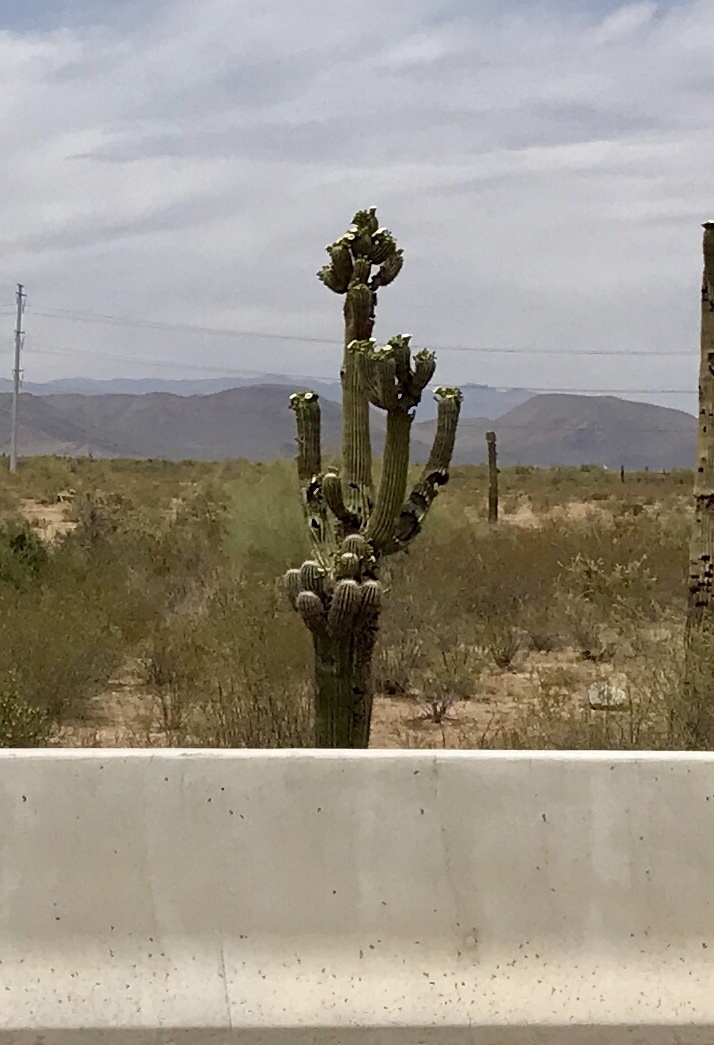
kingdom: Plantae
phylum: Tracheophyta
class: Magnoliopsida
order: Caryophyllales
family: Cactaceae
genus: Carnegiea
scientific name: Carnegiea gigantea
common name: Saguaro
